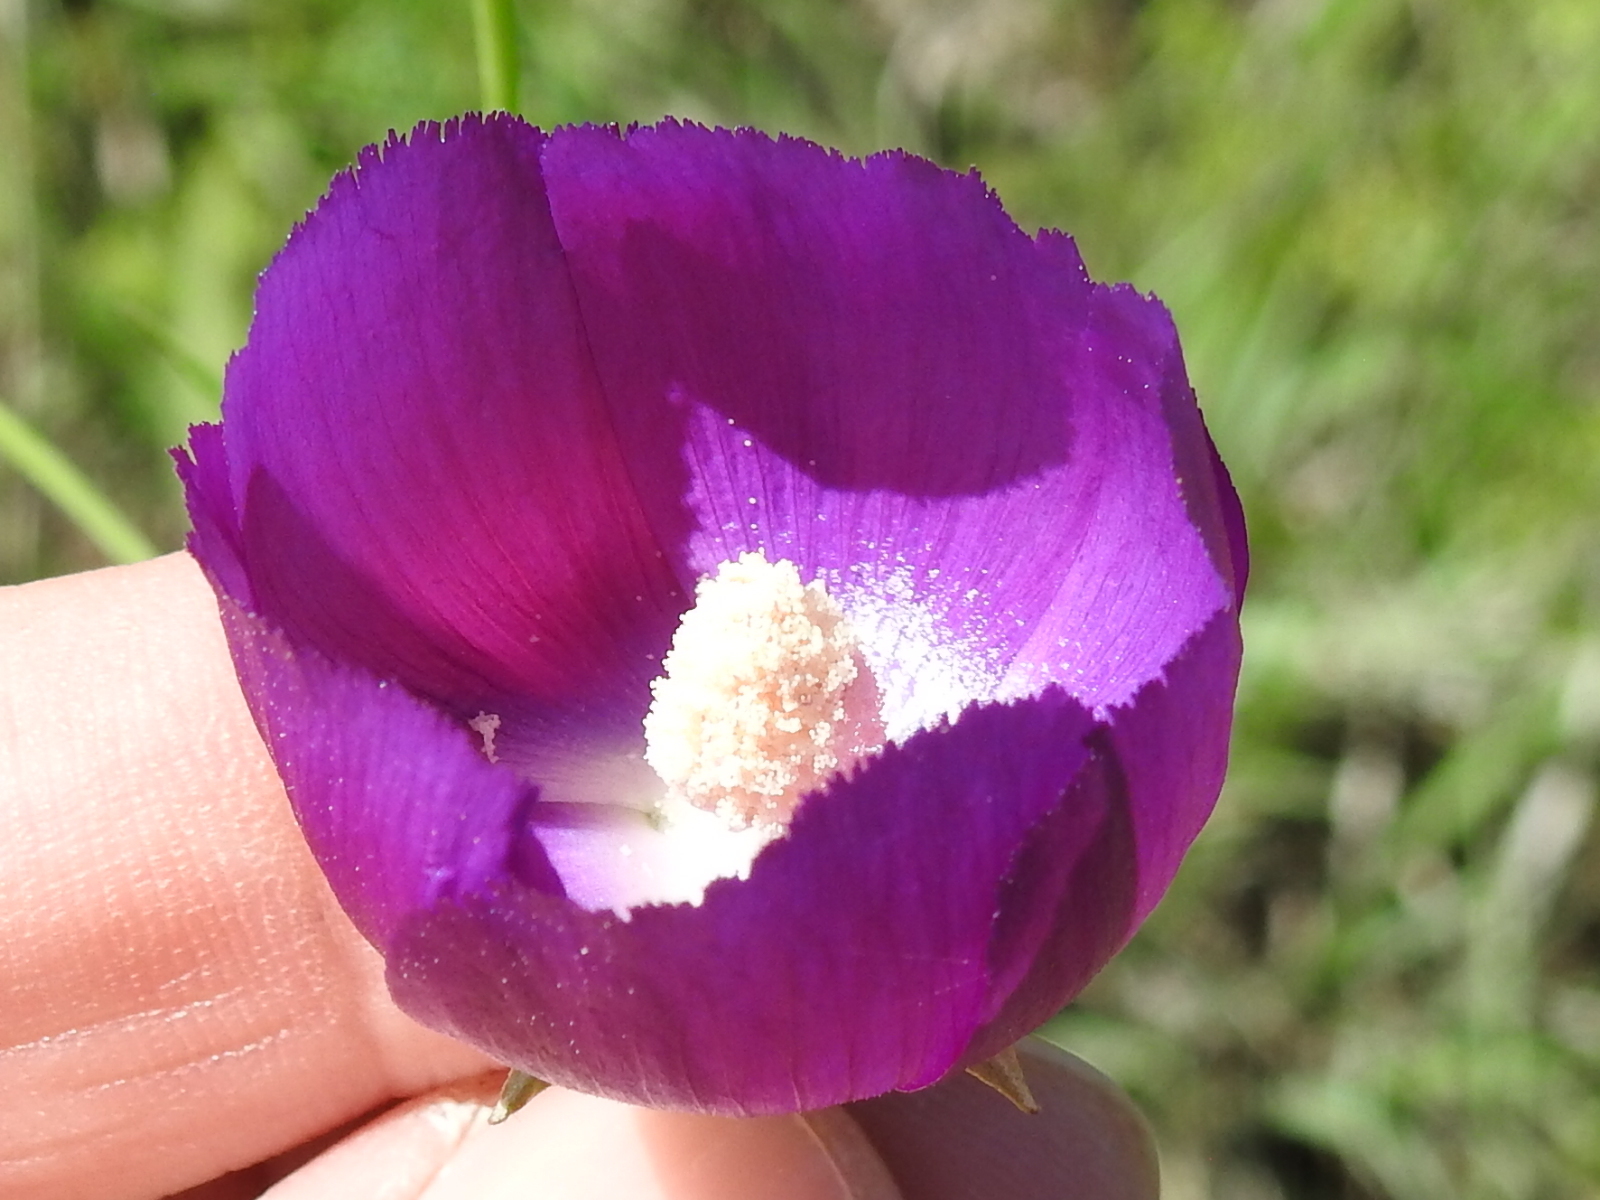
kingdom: Plantae
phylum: Tracheophyta
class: Magnoliopsida
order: Malvales
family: Malvaceae
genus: Callirhoe
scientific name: Callirhoe pedata
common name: Finger poppy-mallow
